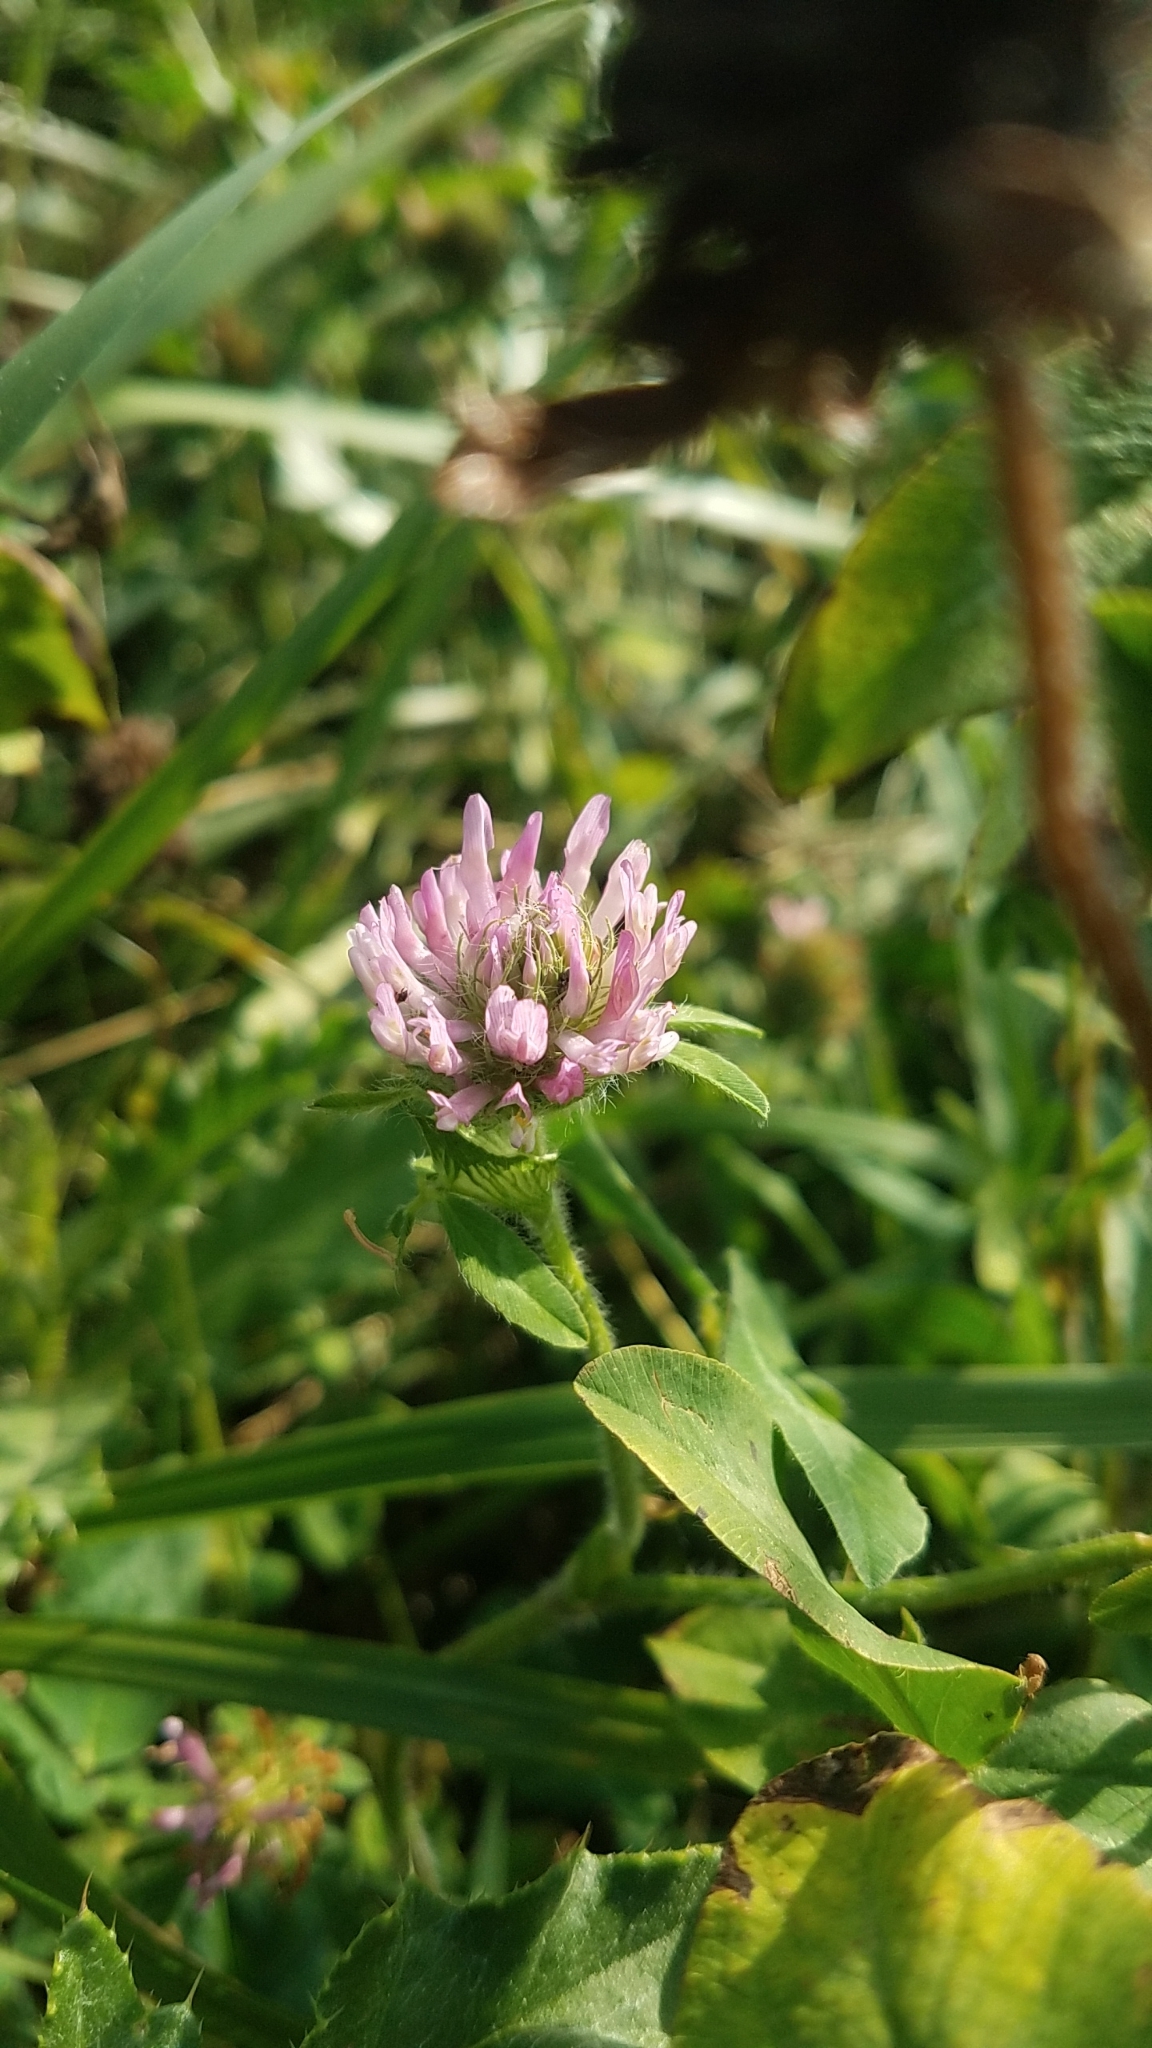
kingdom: Plantae
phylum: Tracheophyta
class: Magnoliopsida
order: Fabales
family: Fabaceae
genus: Trifolium
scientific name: Trifolium pratense
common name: Red clover
